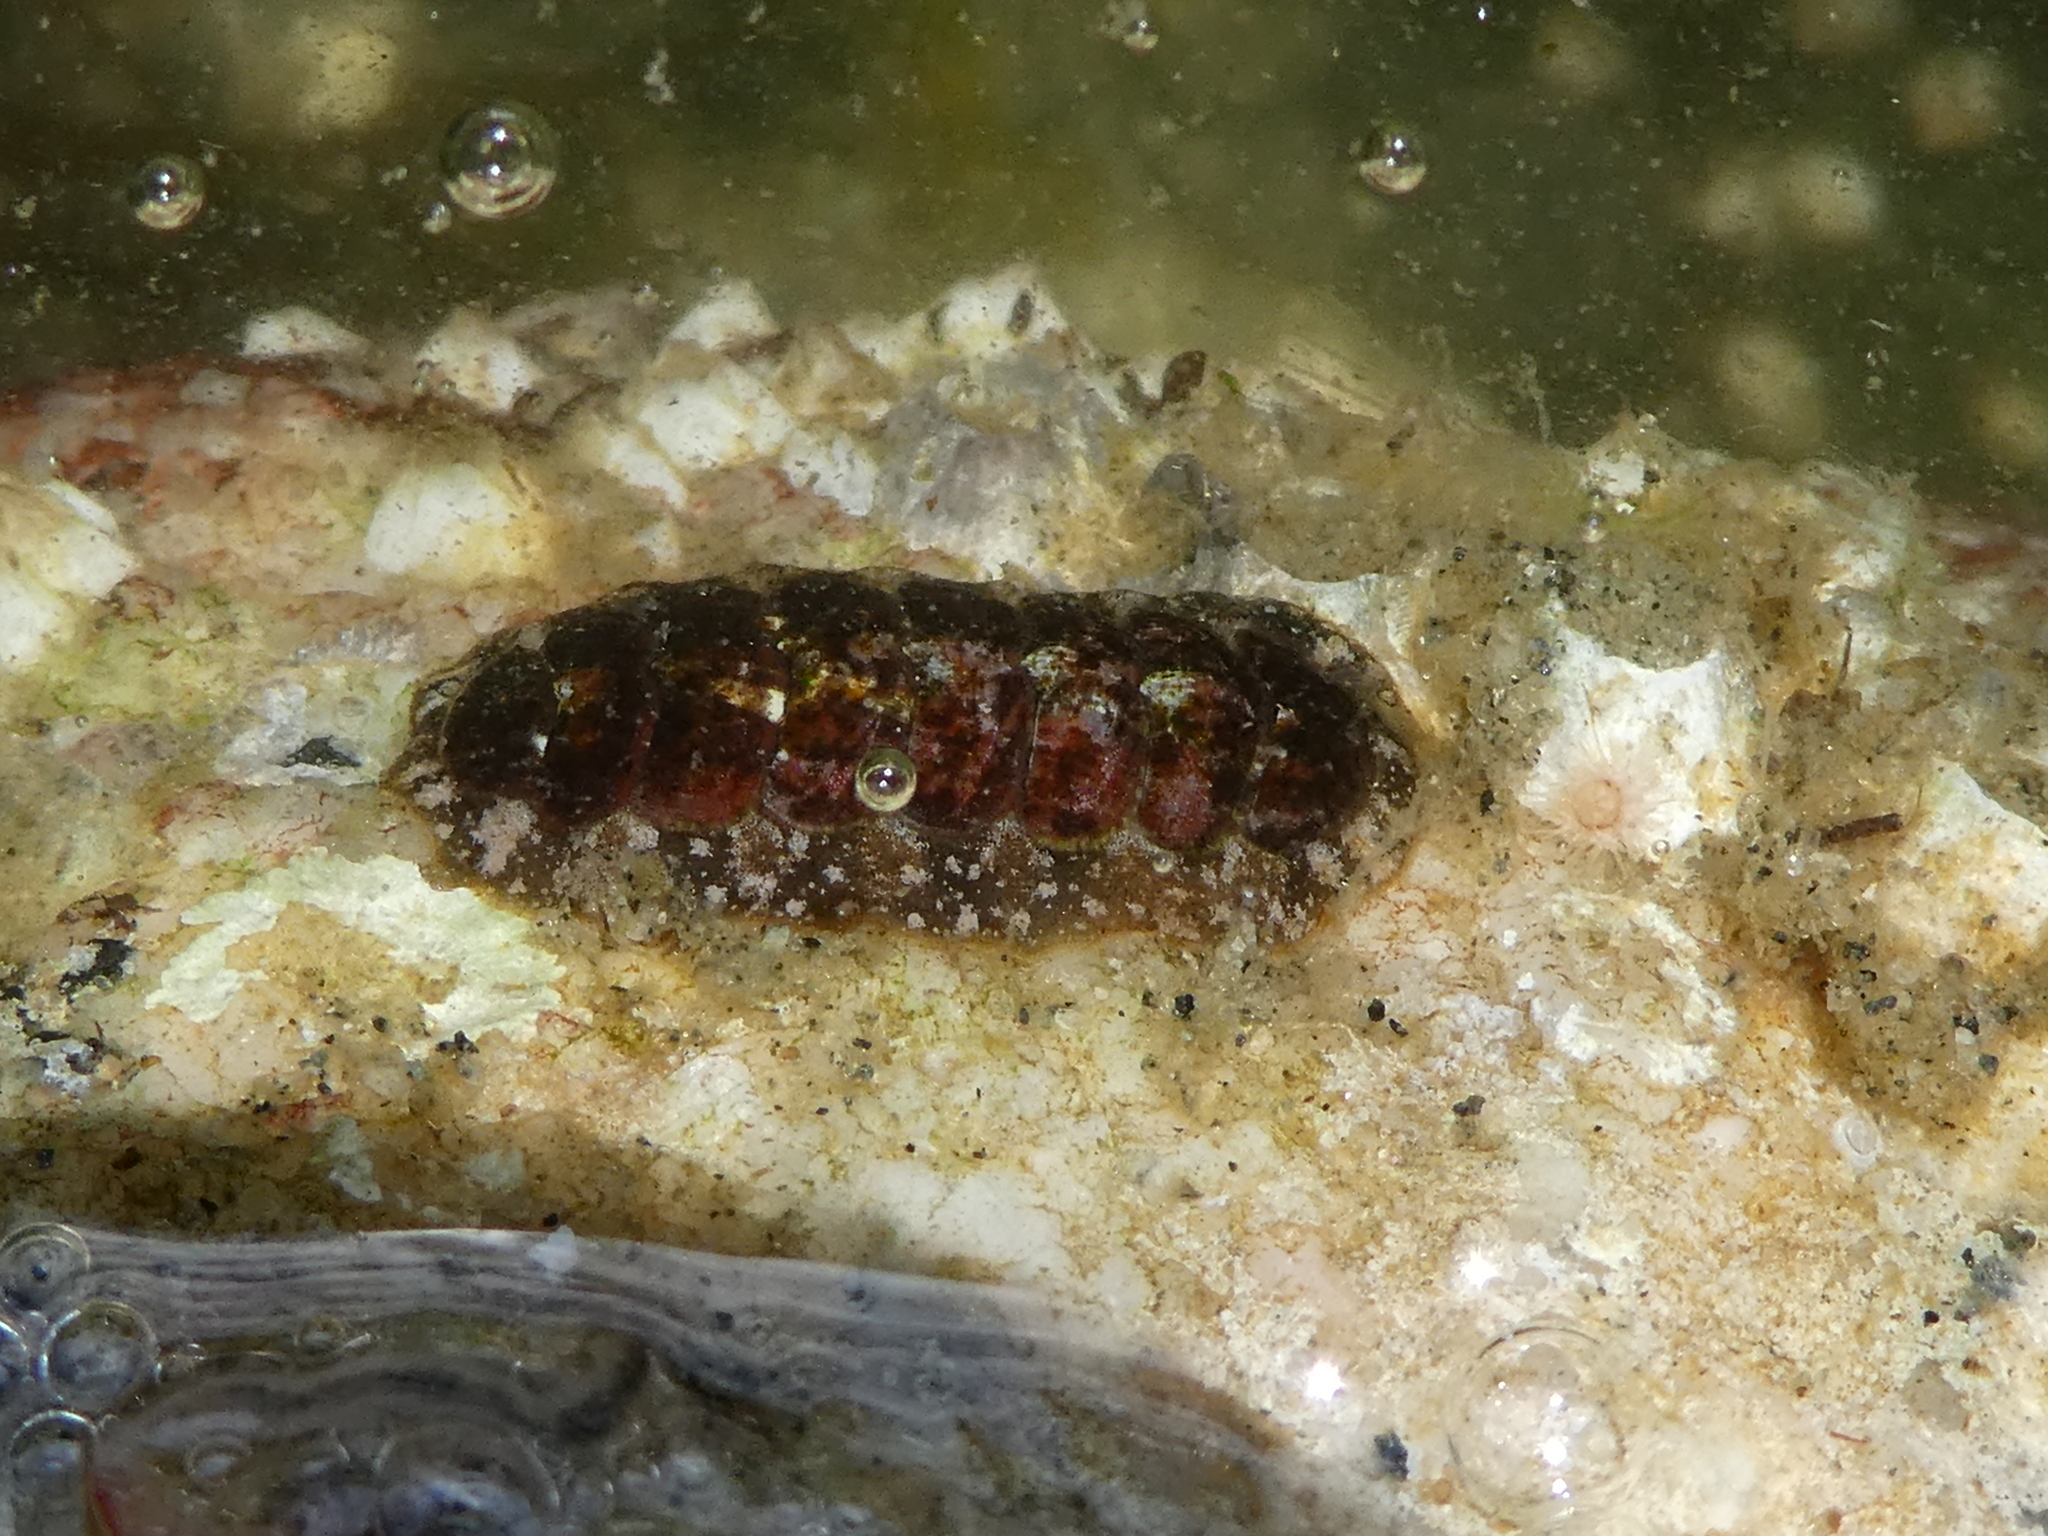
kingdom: Animalia
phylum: Mollusca
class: Polyplacophora
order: Chitonida
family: Tonicellidae
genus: Cyanoplax
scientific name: Cyanoplax dentiens
